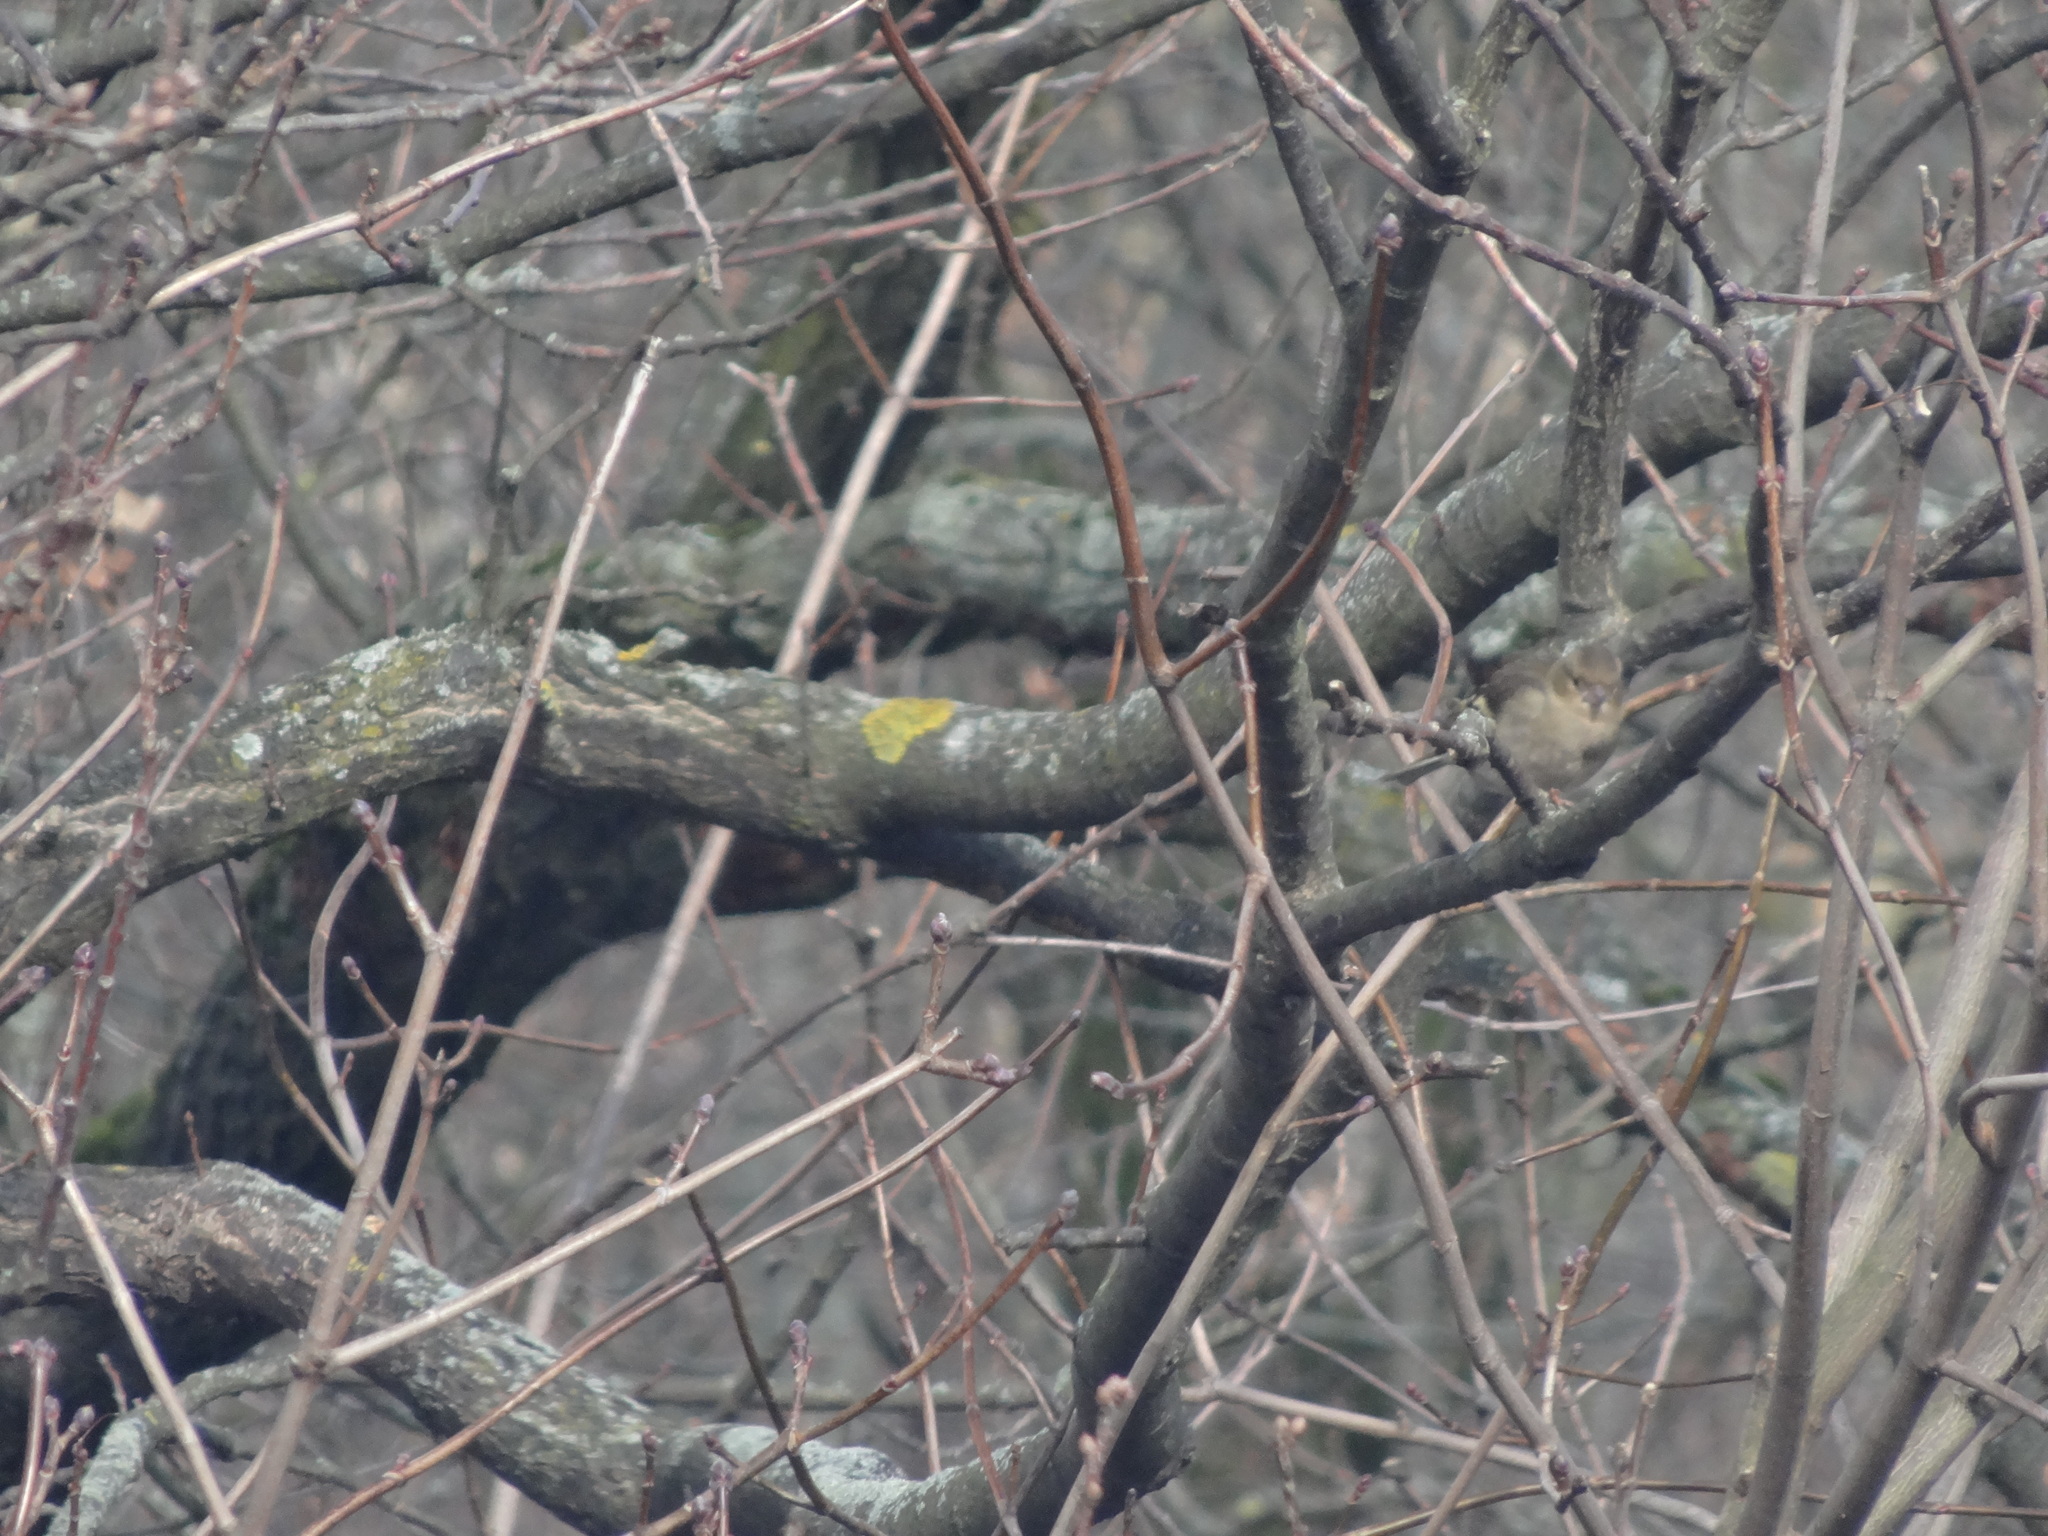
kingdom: Animalia
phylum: Chordata
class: Aves
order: Passeriformes
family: Fringillidae
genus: Fringilla
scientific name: Fringilla coelebs
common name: Common chaffinch
